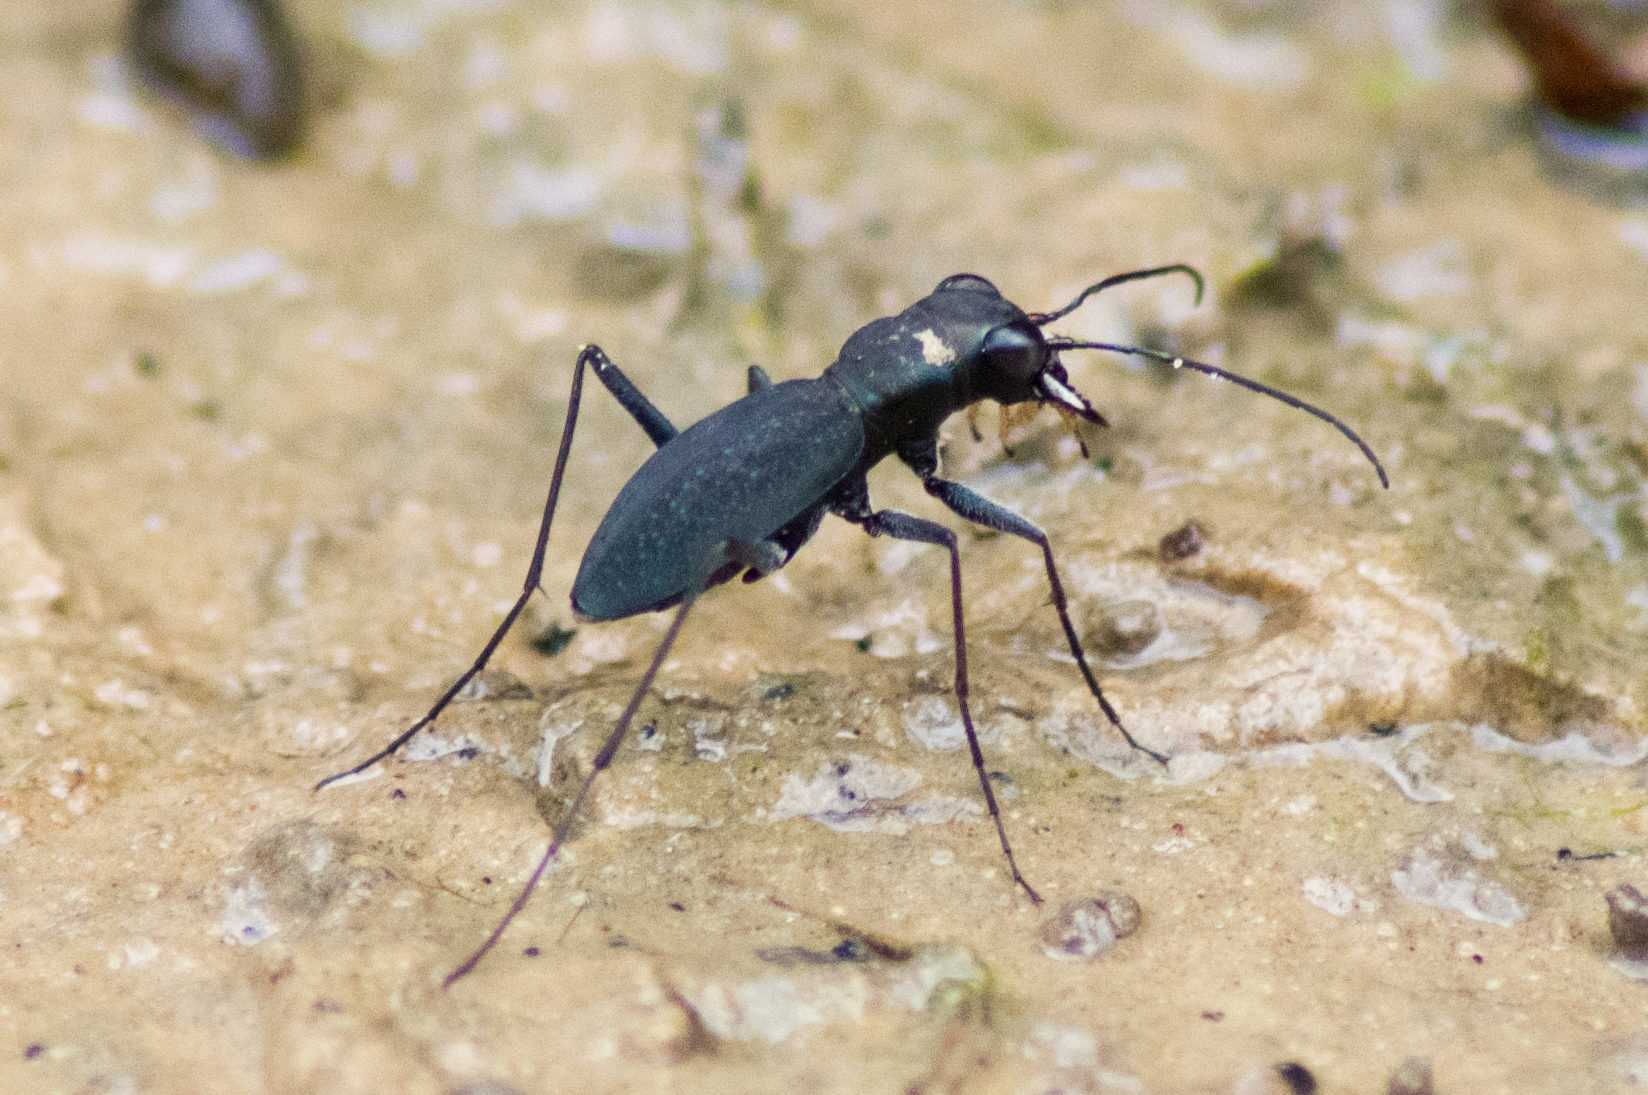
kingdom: Animalia
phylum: Arthropoda
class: Insecta
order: Coleoptera
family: Carabidae
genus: Dromochorus
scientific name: Dromochorus pilatei
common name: Cajun dromo tiger beetle
